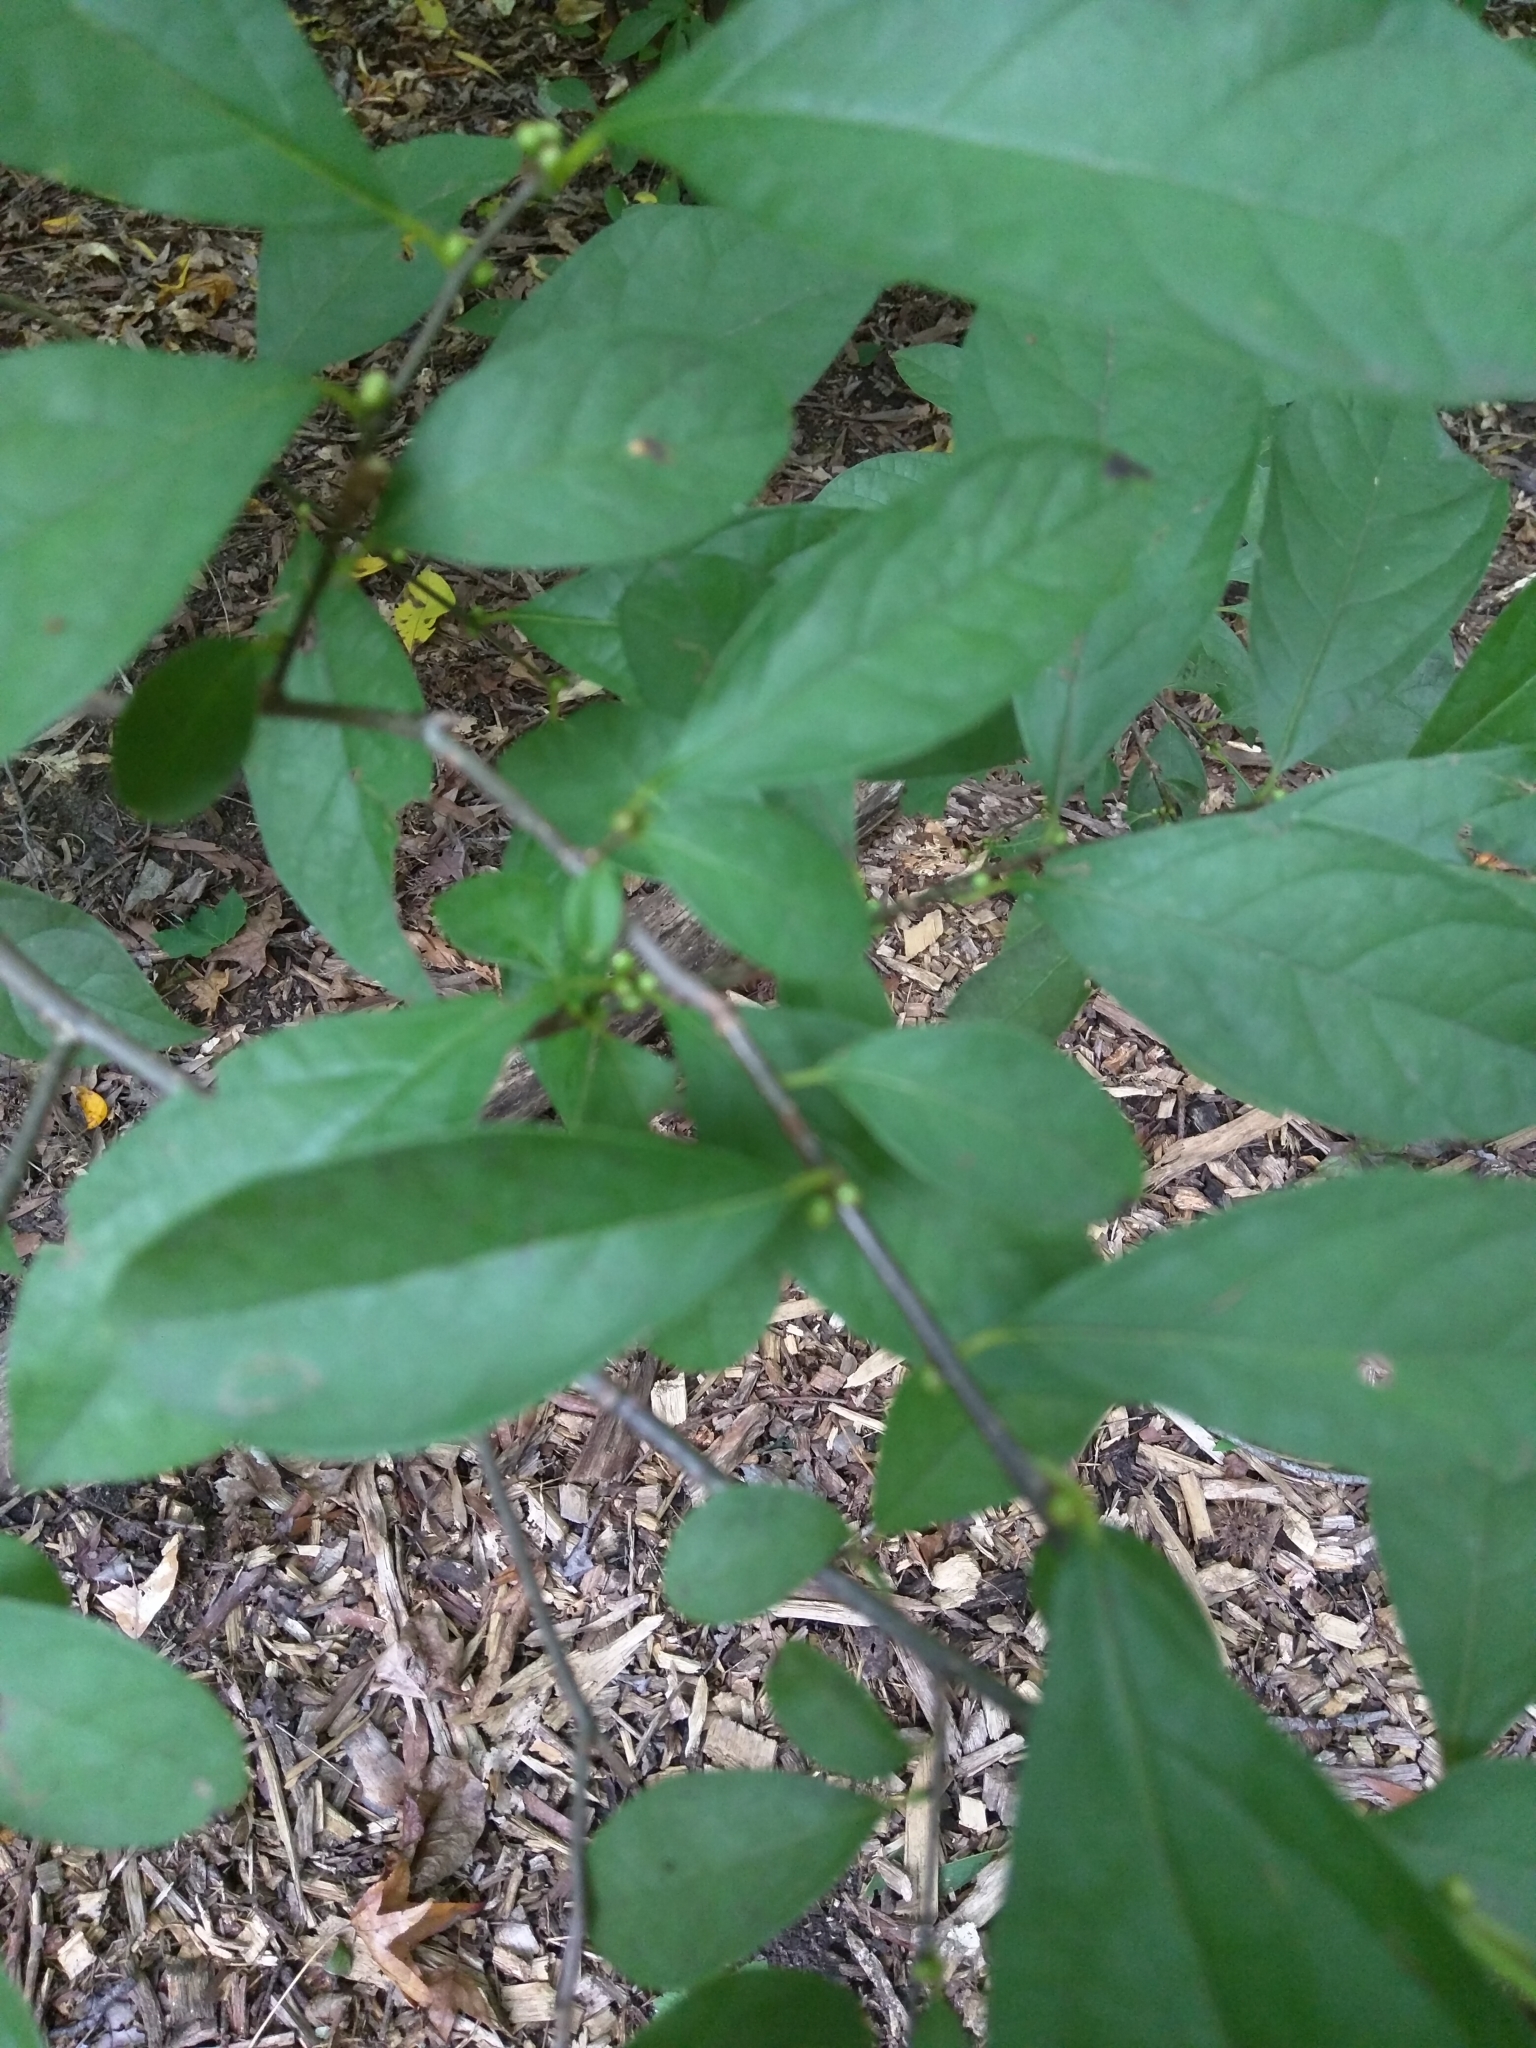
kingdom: Plantae
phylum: Tracheophyta
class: Magnoliopsida
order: Laurales
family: Lauraceae
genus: Lindera
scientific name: Lindera benzoin
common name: Spicebush
